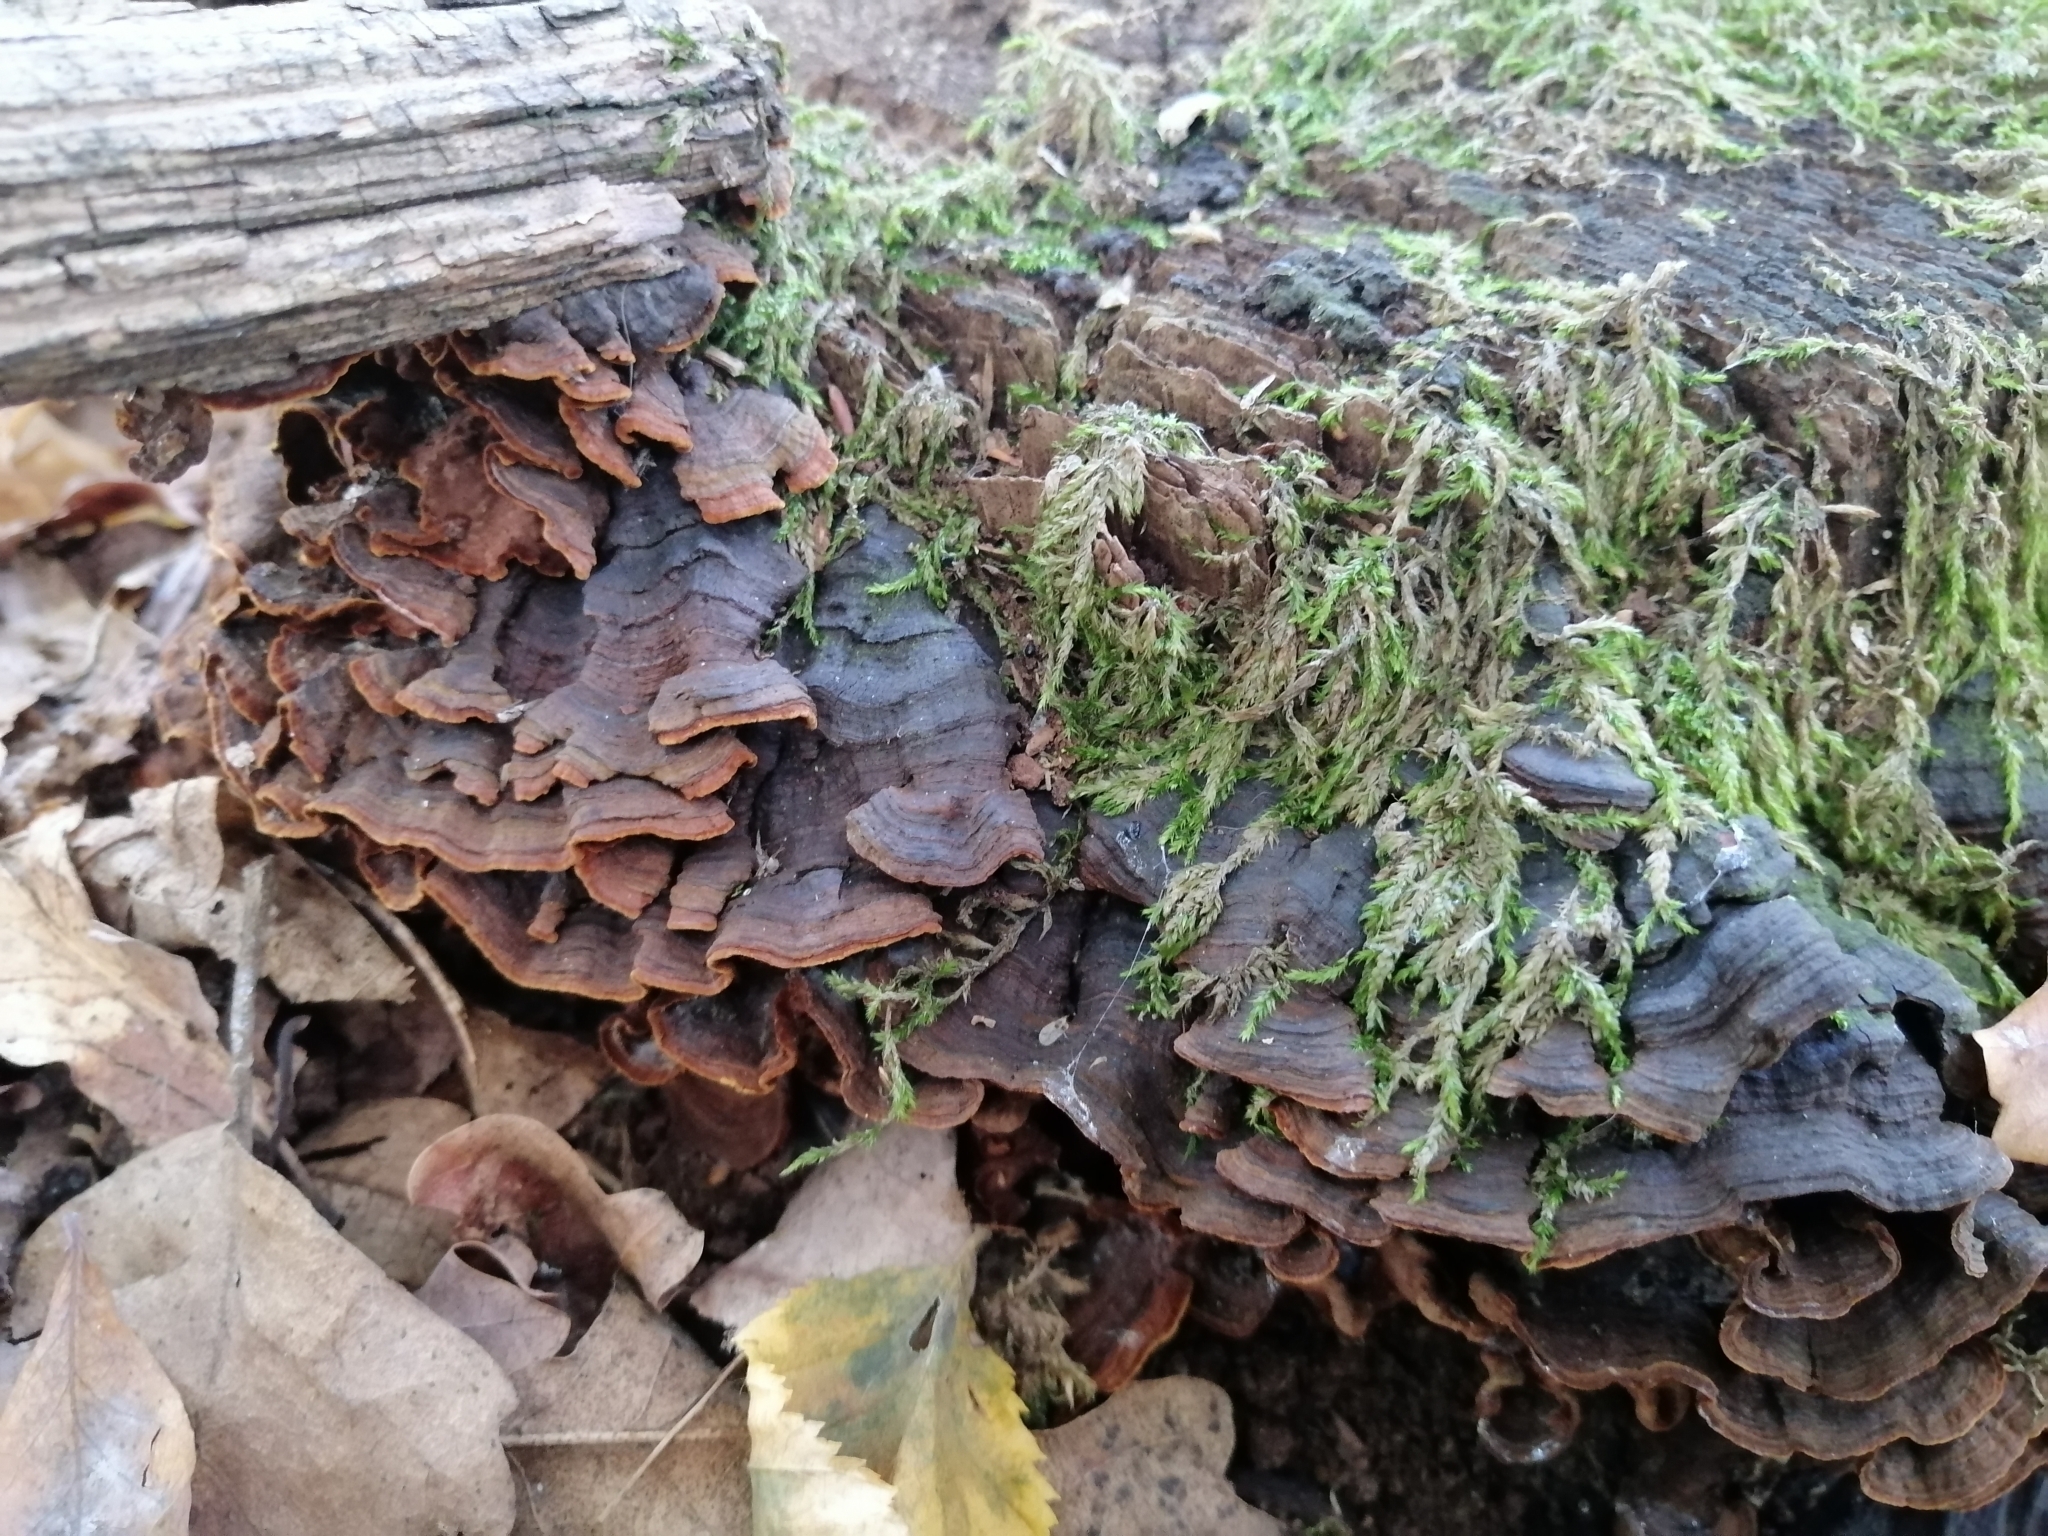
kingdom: Fungi
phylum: Basidiomycota
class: Agaricomycetes
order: Hymenochaetales
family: Hymenochaetaceae
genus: Hymenochaete
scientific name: Hymenochaete rubiginosa
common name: Oak curtain crust
